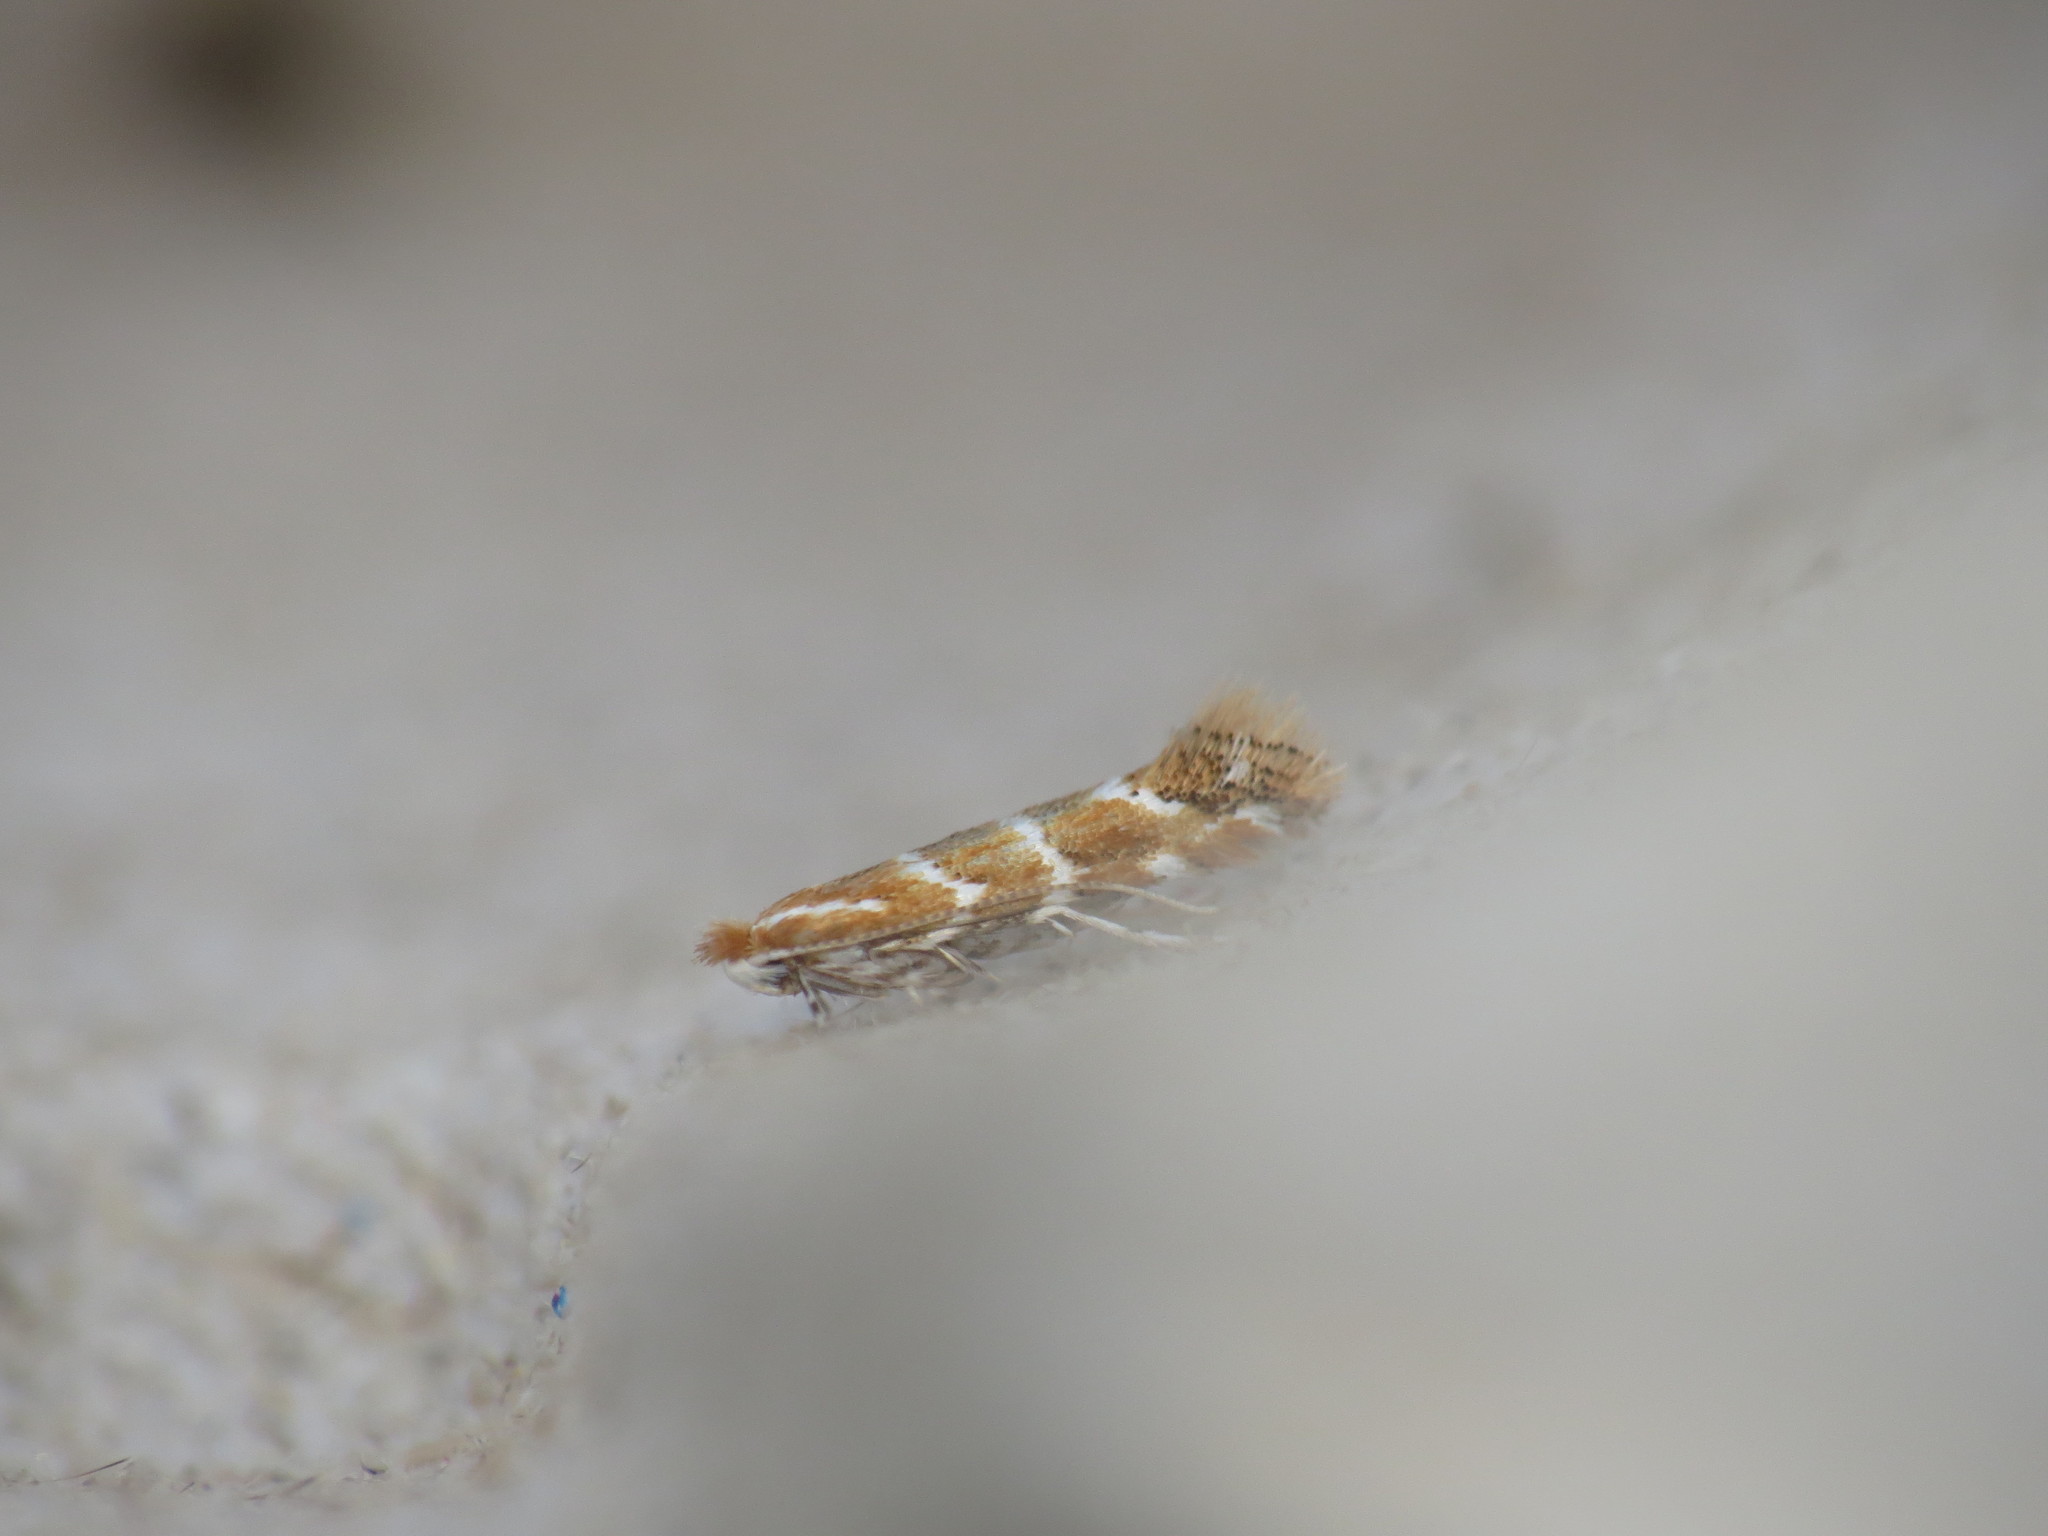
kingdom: Animalia
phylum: Arthropoda
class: Insecta
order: Lepidoptera
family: Gracillariidae
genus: Cameraria
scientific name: Cameraria ohridella
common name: Horse-chestnut leaf-miner
